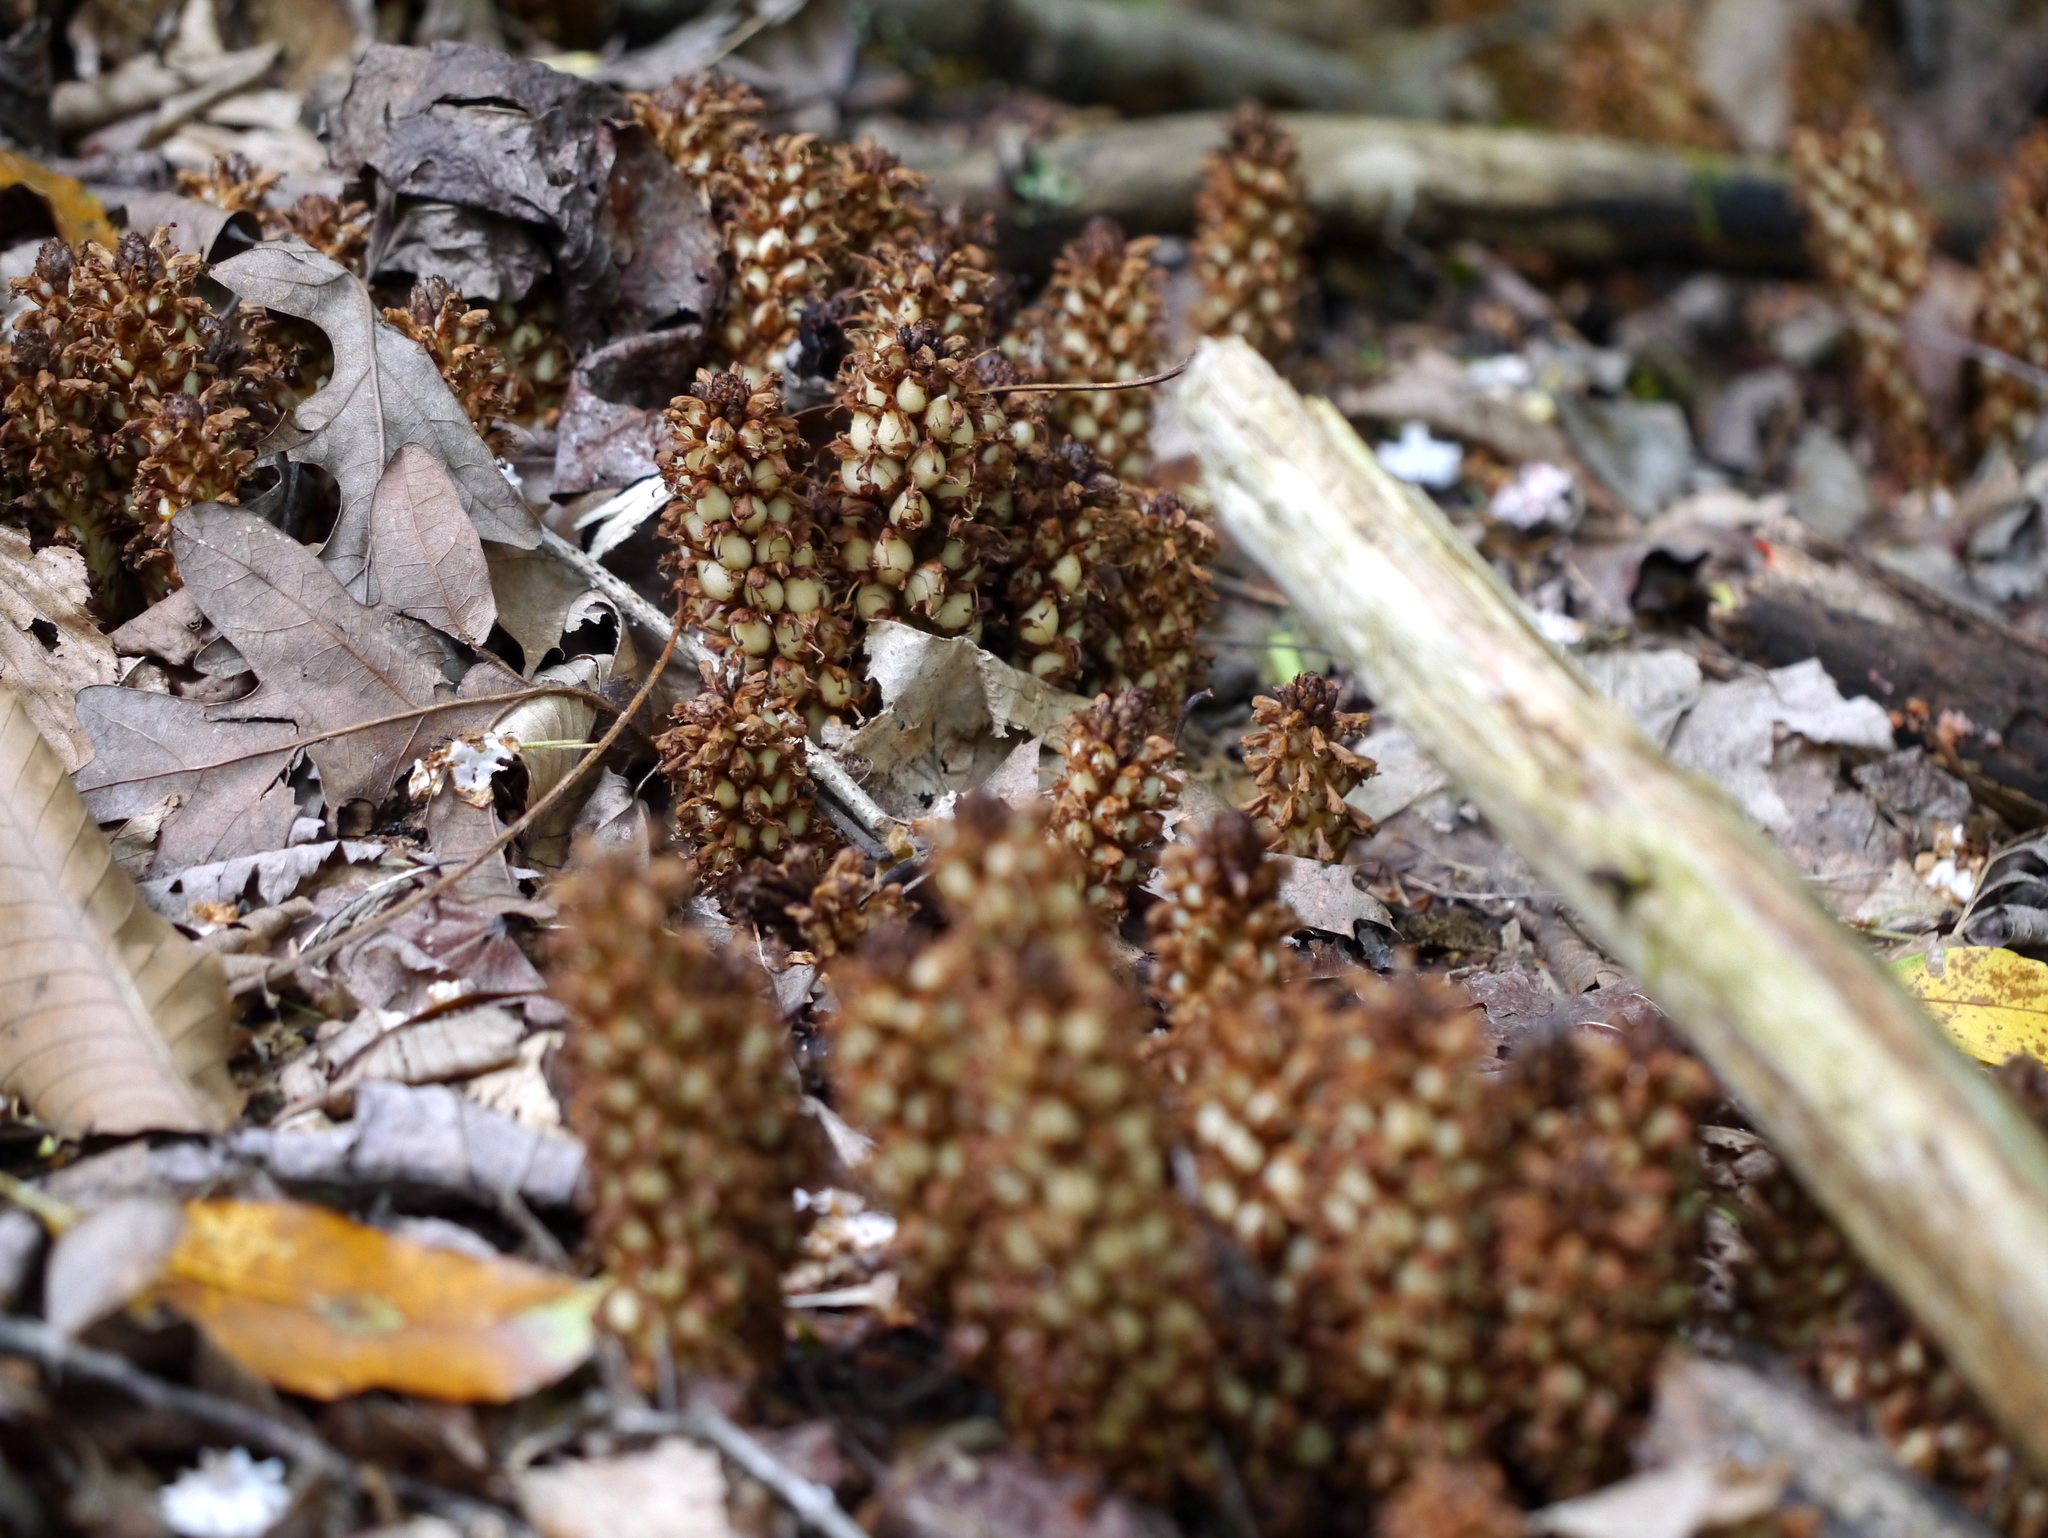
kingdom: Plantae
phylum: Tracheophyta
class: Magnoliopsida
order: Lamiales
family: Orobanchaceae
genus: Conopholis
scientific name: Conopholis americana
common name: American cancer-root
